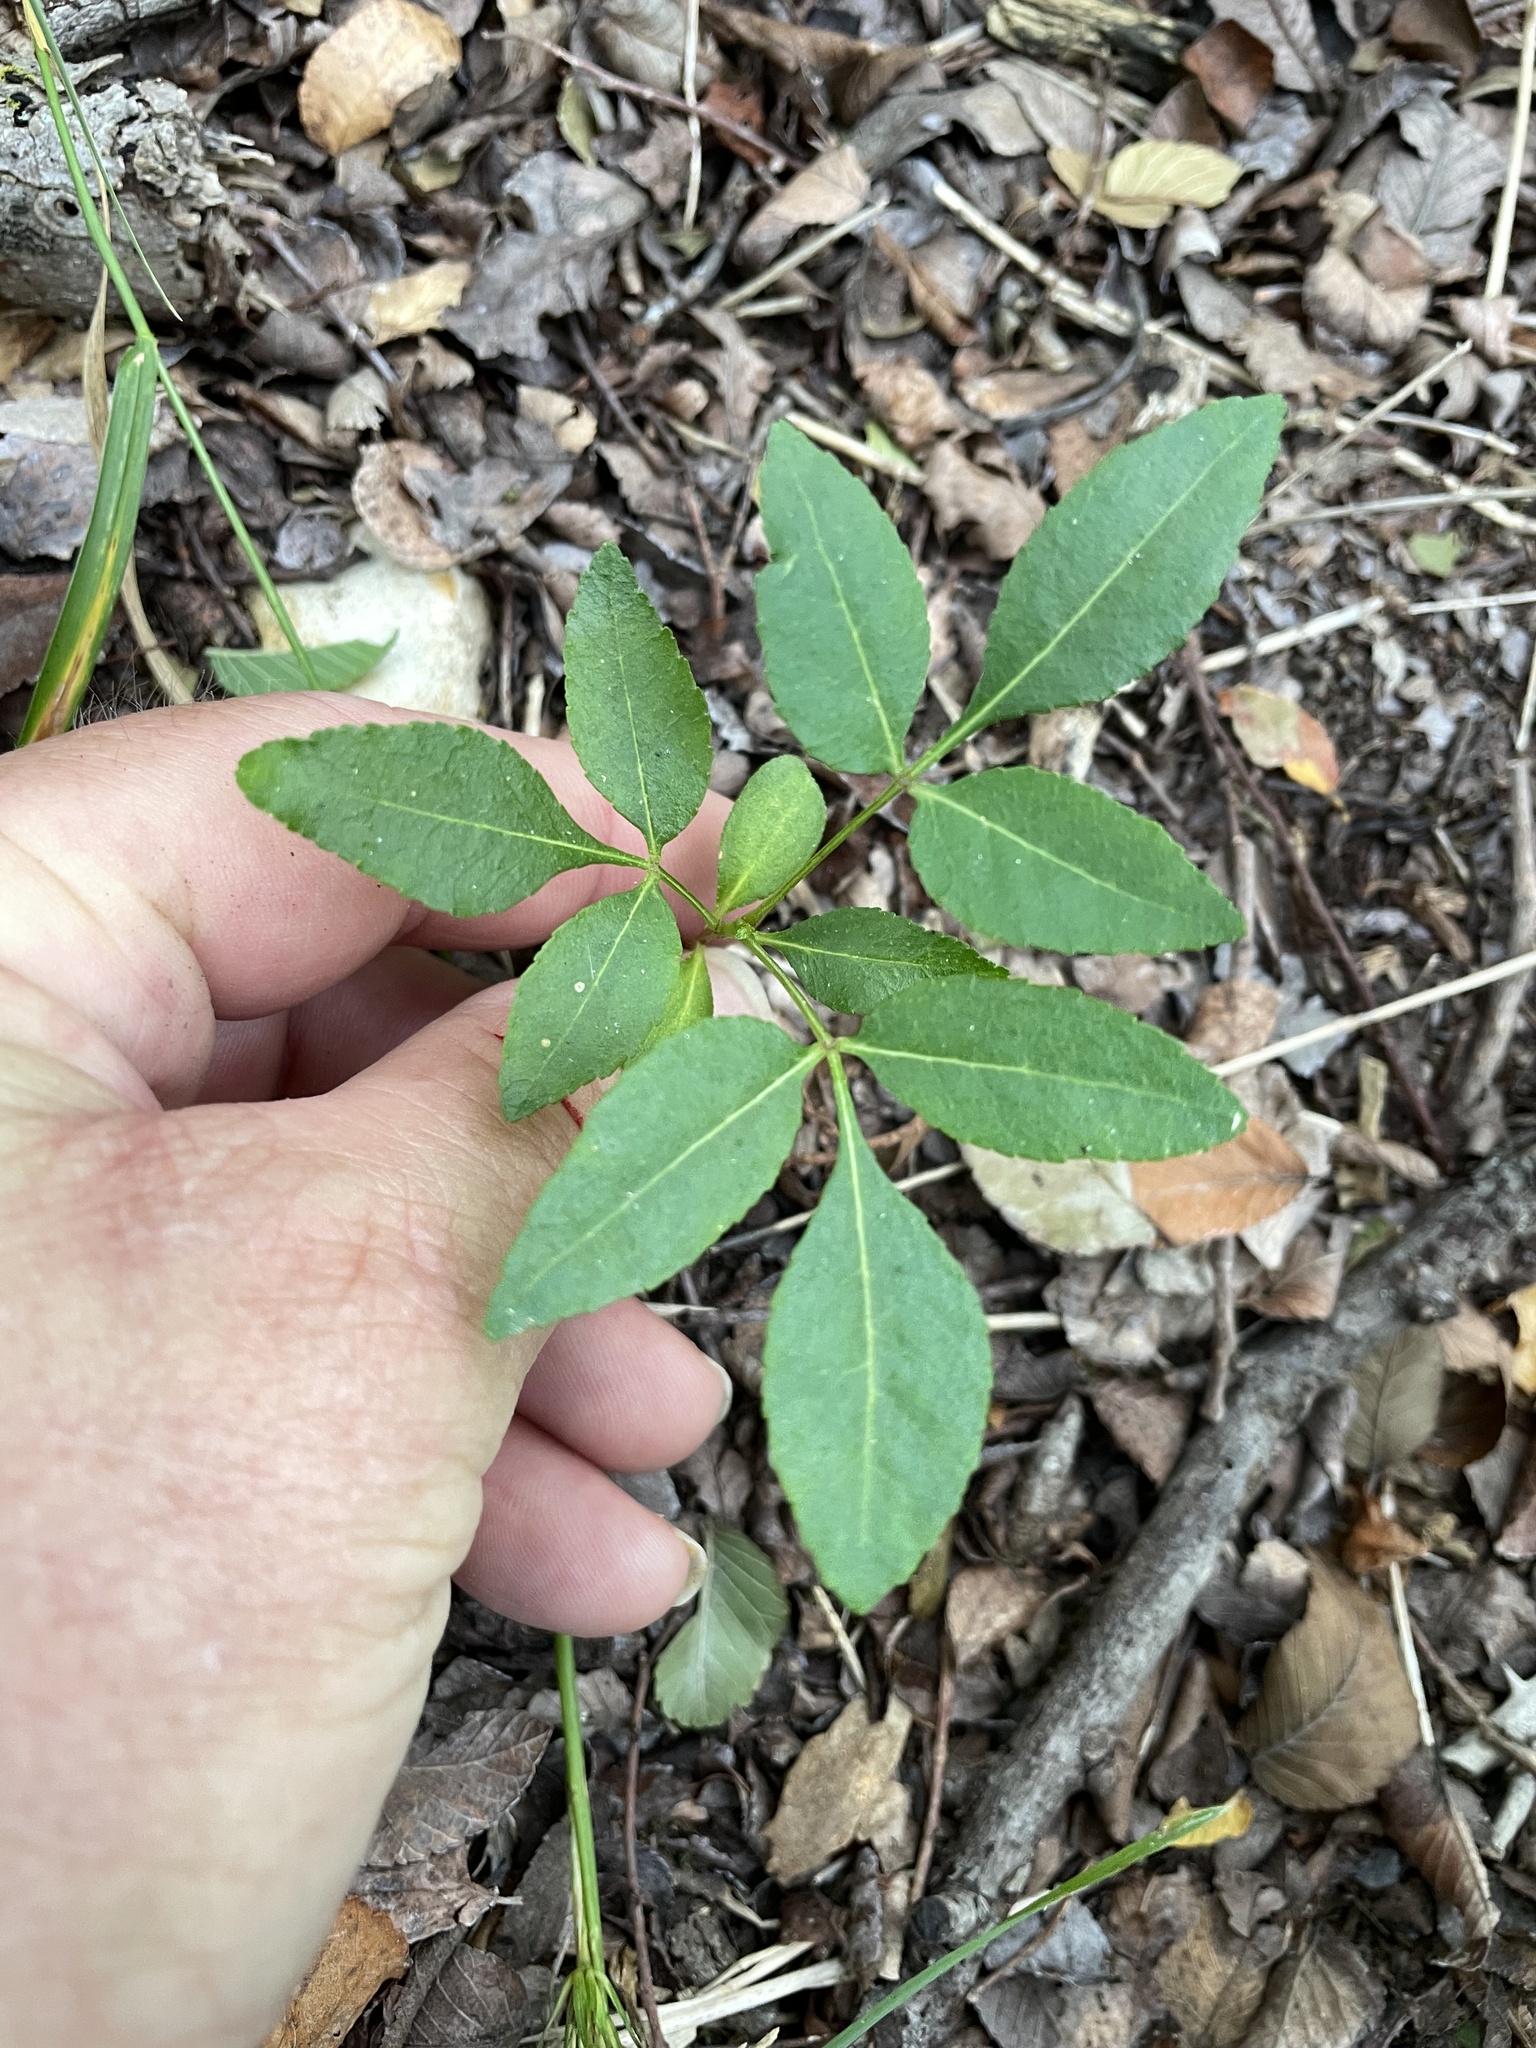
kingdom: Plantae
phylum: Tracheophyta
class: Magnoliopsida
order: Sapindales
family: Rutaceae
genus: Ptelea
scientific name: Ptelea trifoliata
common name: Common hop-tree
